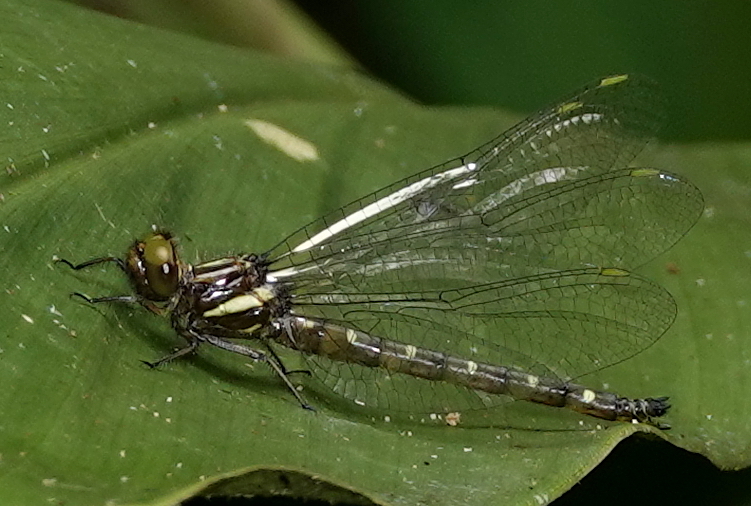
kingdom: Animalia
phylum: Arthropoda
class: Insecta
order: Odonata
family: Synthemistidae
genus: Gomphomacromia
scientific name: Gomphomacromia fallax
